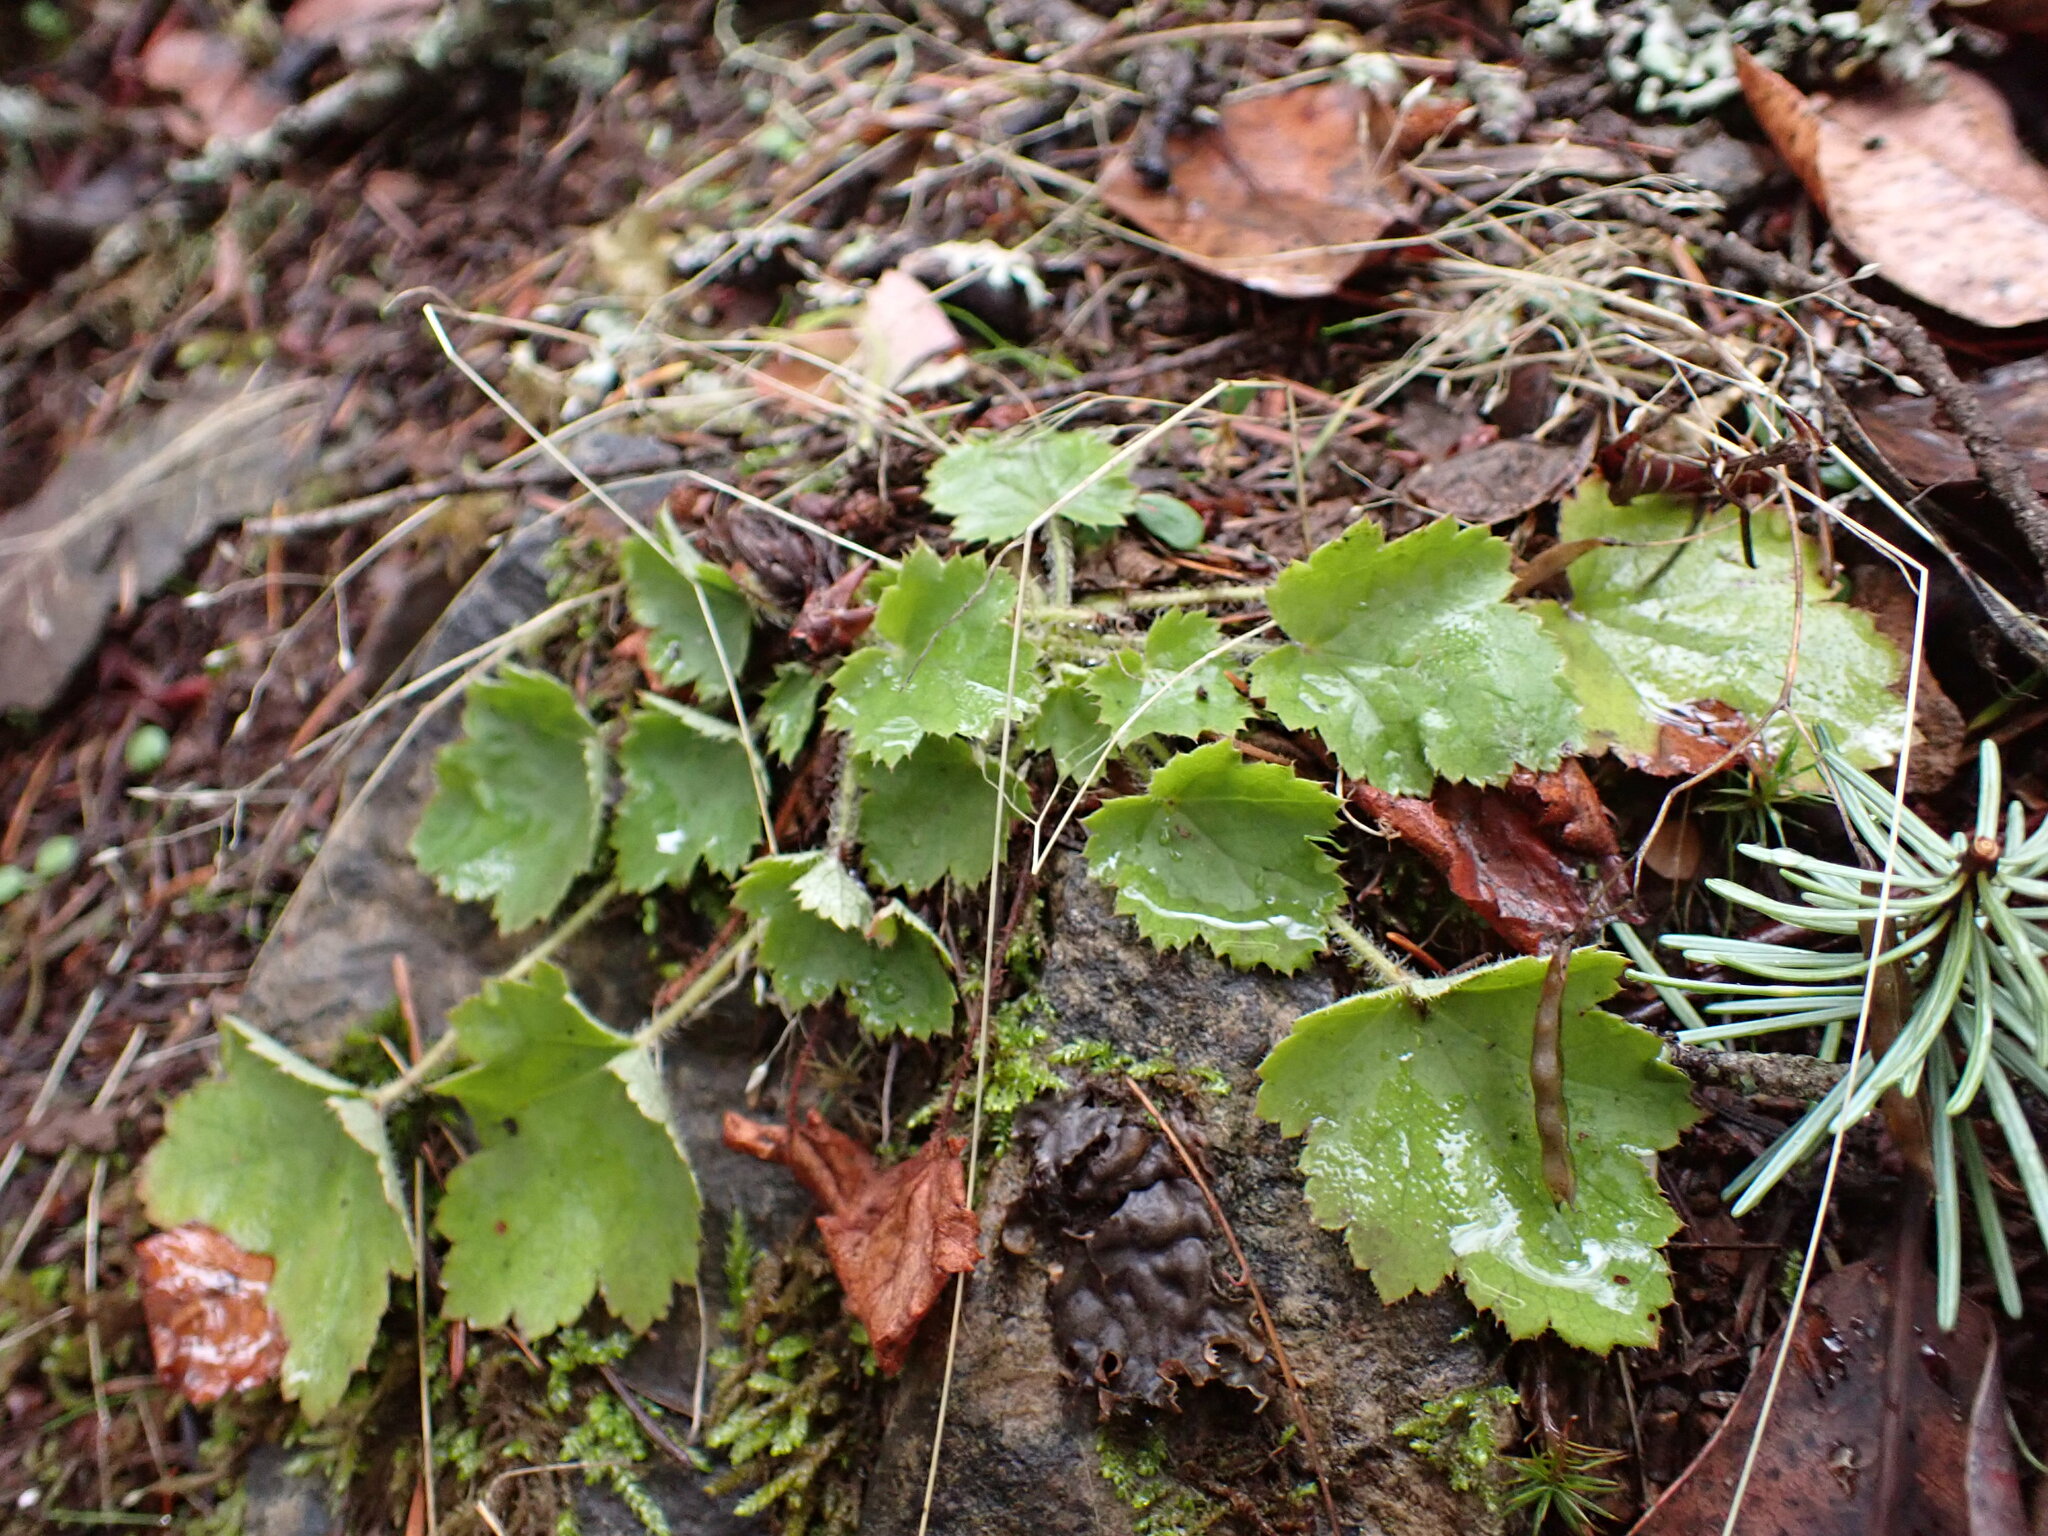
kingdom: Plantae
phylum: Tracheophyta
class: Magnoliopsida
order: Saxifragales
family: Saxifragaceae
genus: Heuchera
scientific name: Heuchera micrantha
